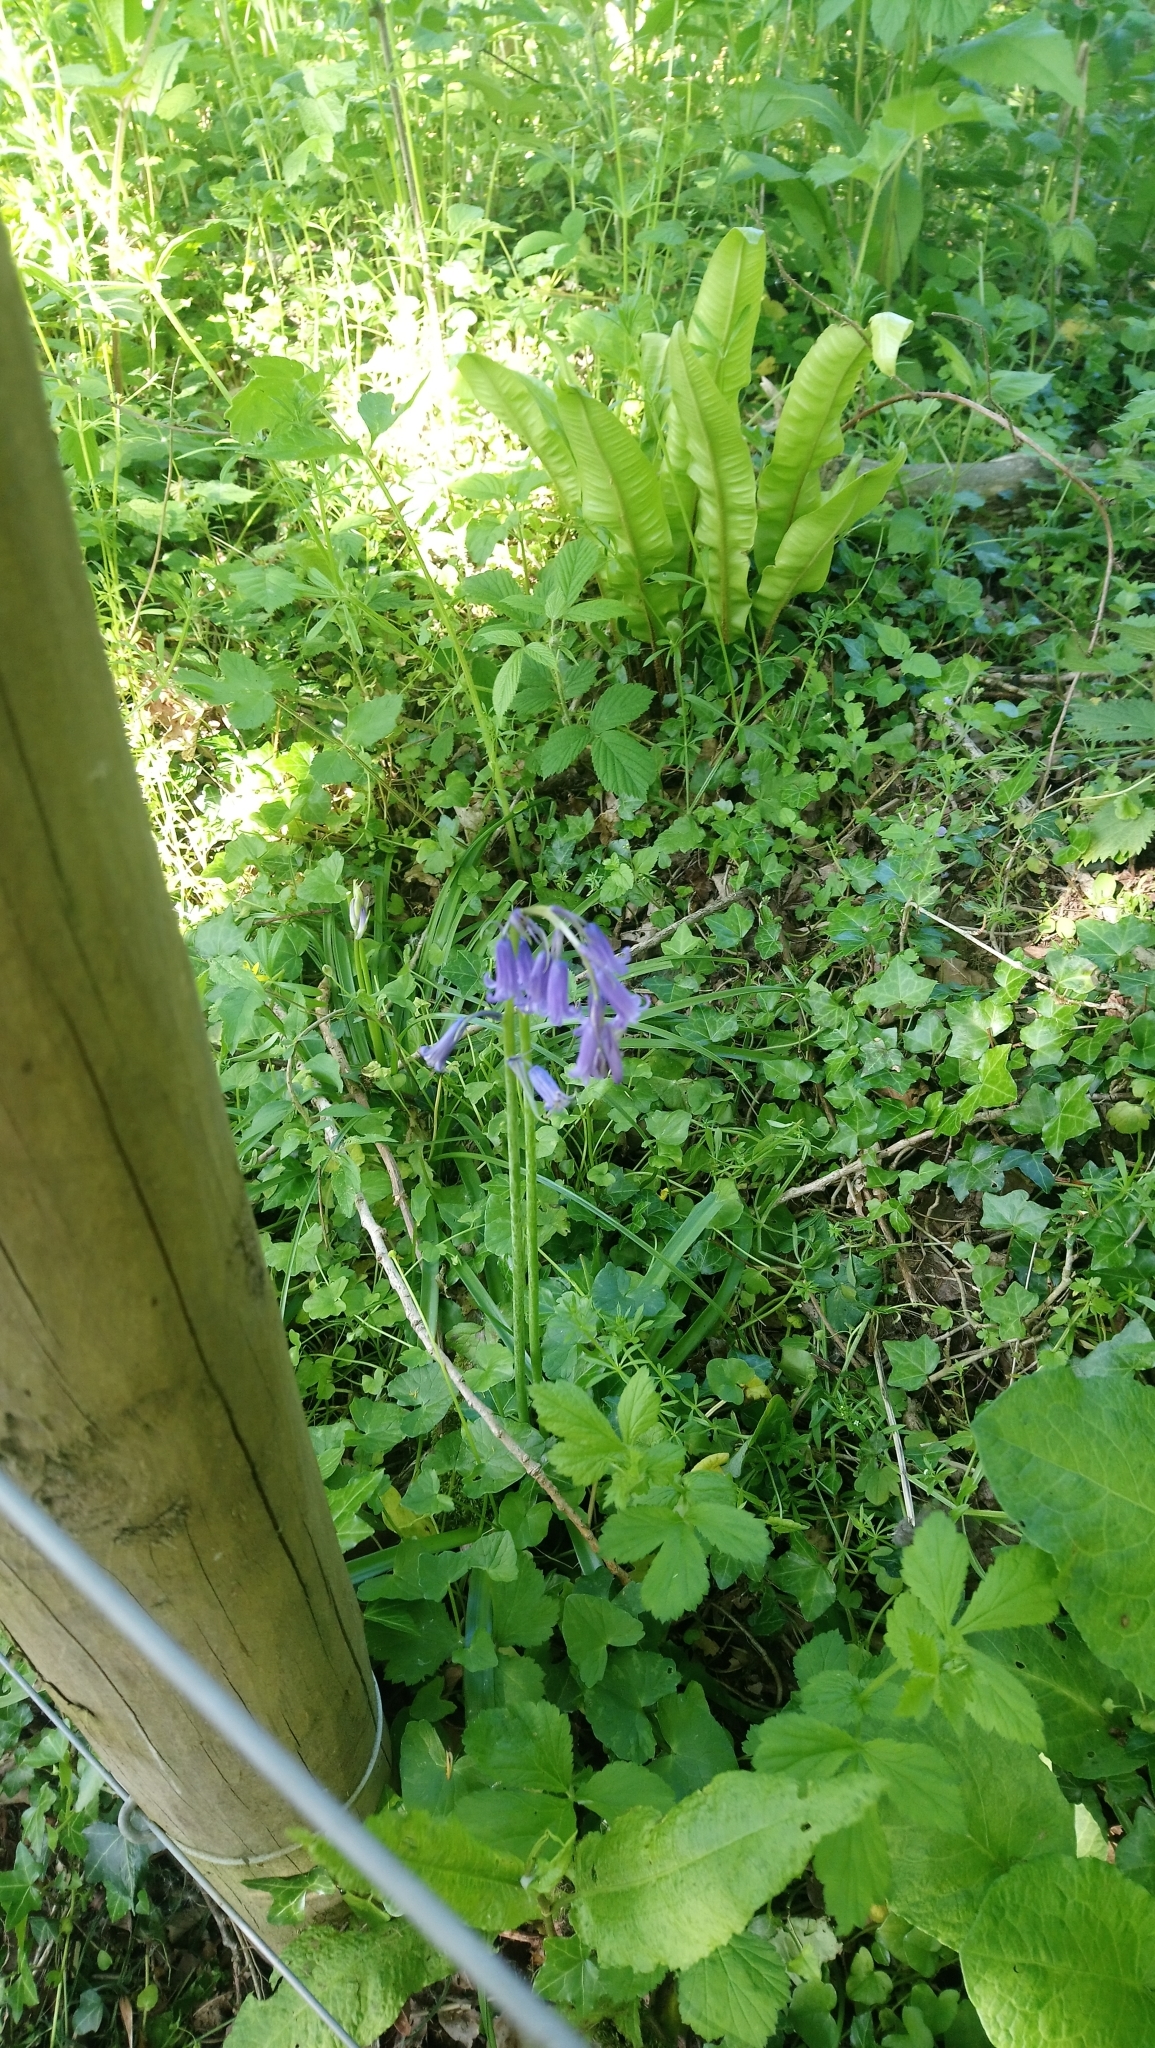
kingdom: Plantae
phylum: Tracheophyta
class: Liliopsida
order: Asparagales
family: Asparagaceae
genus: Hyacinthoides
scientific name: Hyacinthoides non-scripta
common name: Bluebell
